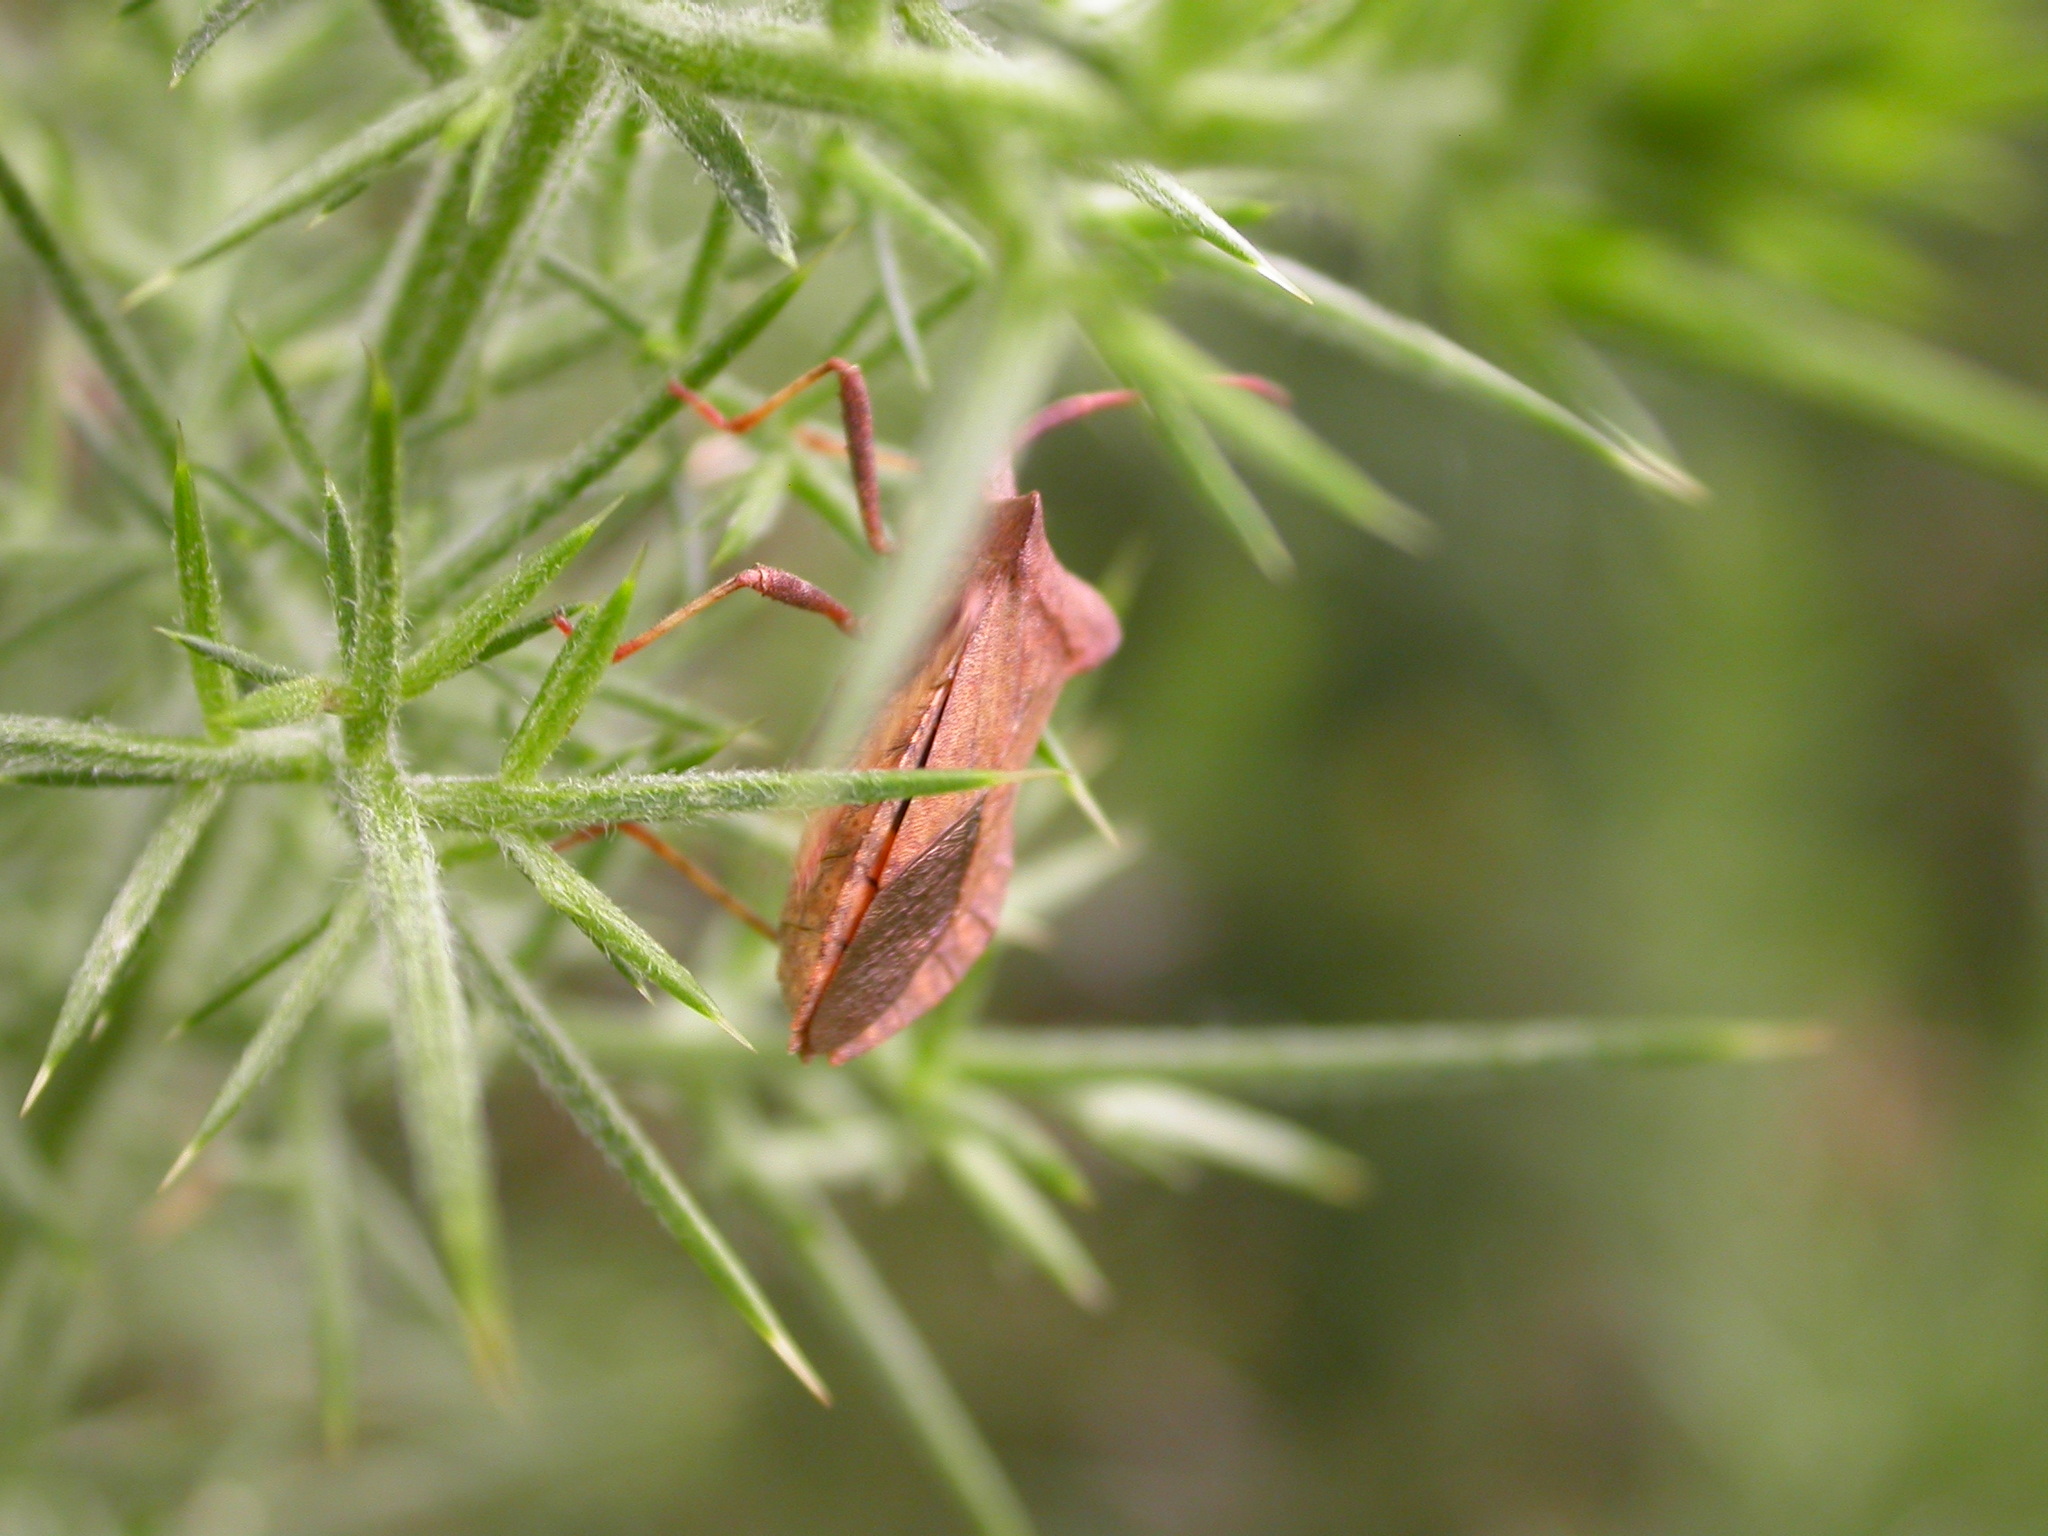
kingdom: Animalia
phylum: Arthropoda
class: Insecta
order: Hemiptera
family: Coreidae
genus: Coreus
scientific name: Coreus marginatus
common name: Dock bug
